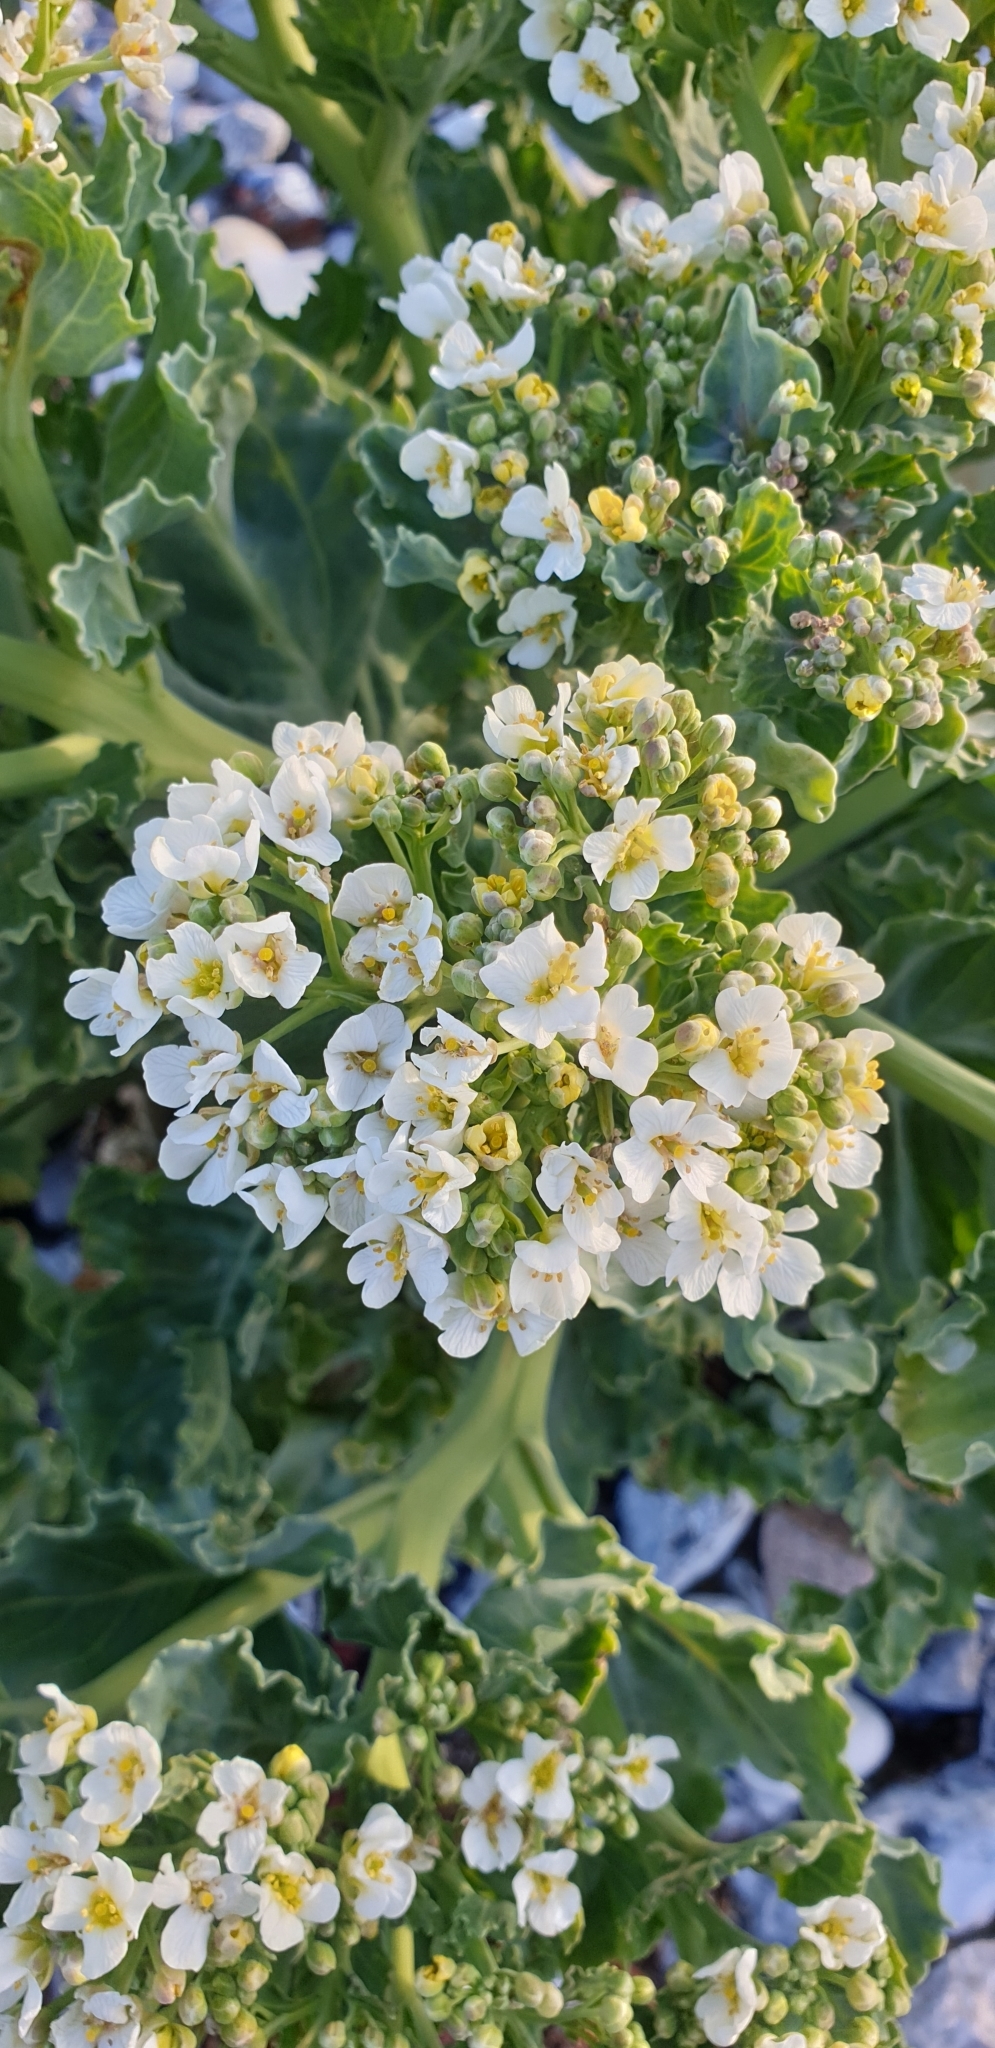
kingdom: Plantae
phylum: Tracheophyta
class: Magnoliopsida
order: Brassicales
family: Brassicaceae
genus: Crambe
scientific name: Crambe maritima
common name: Sea-kale
